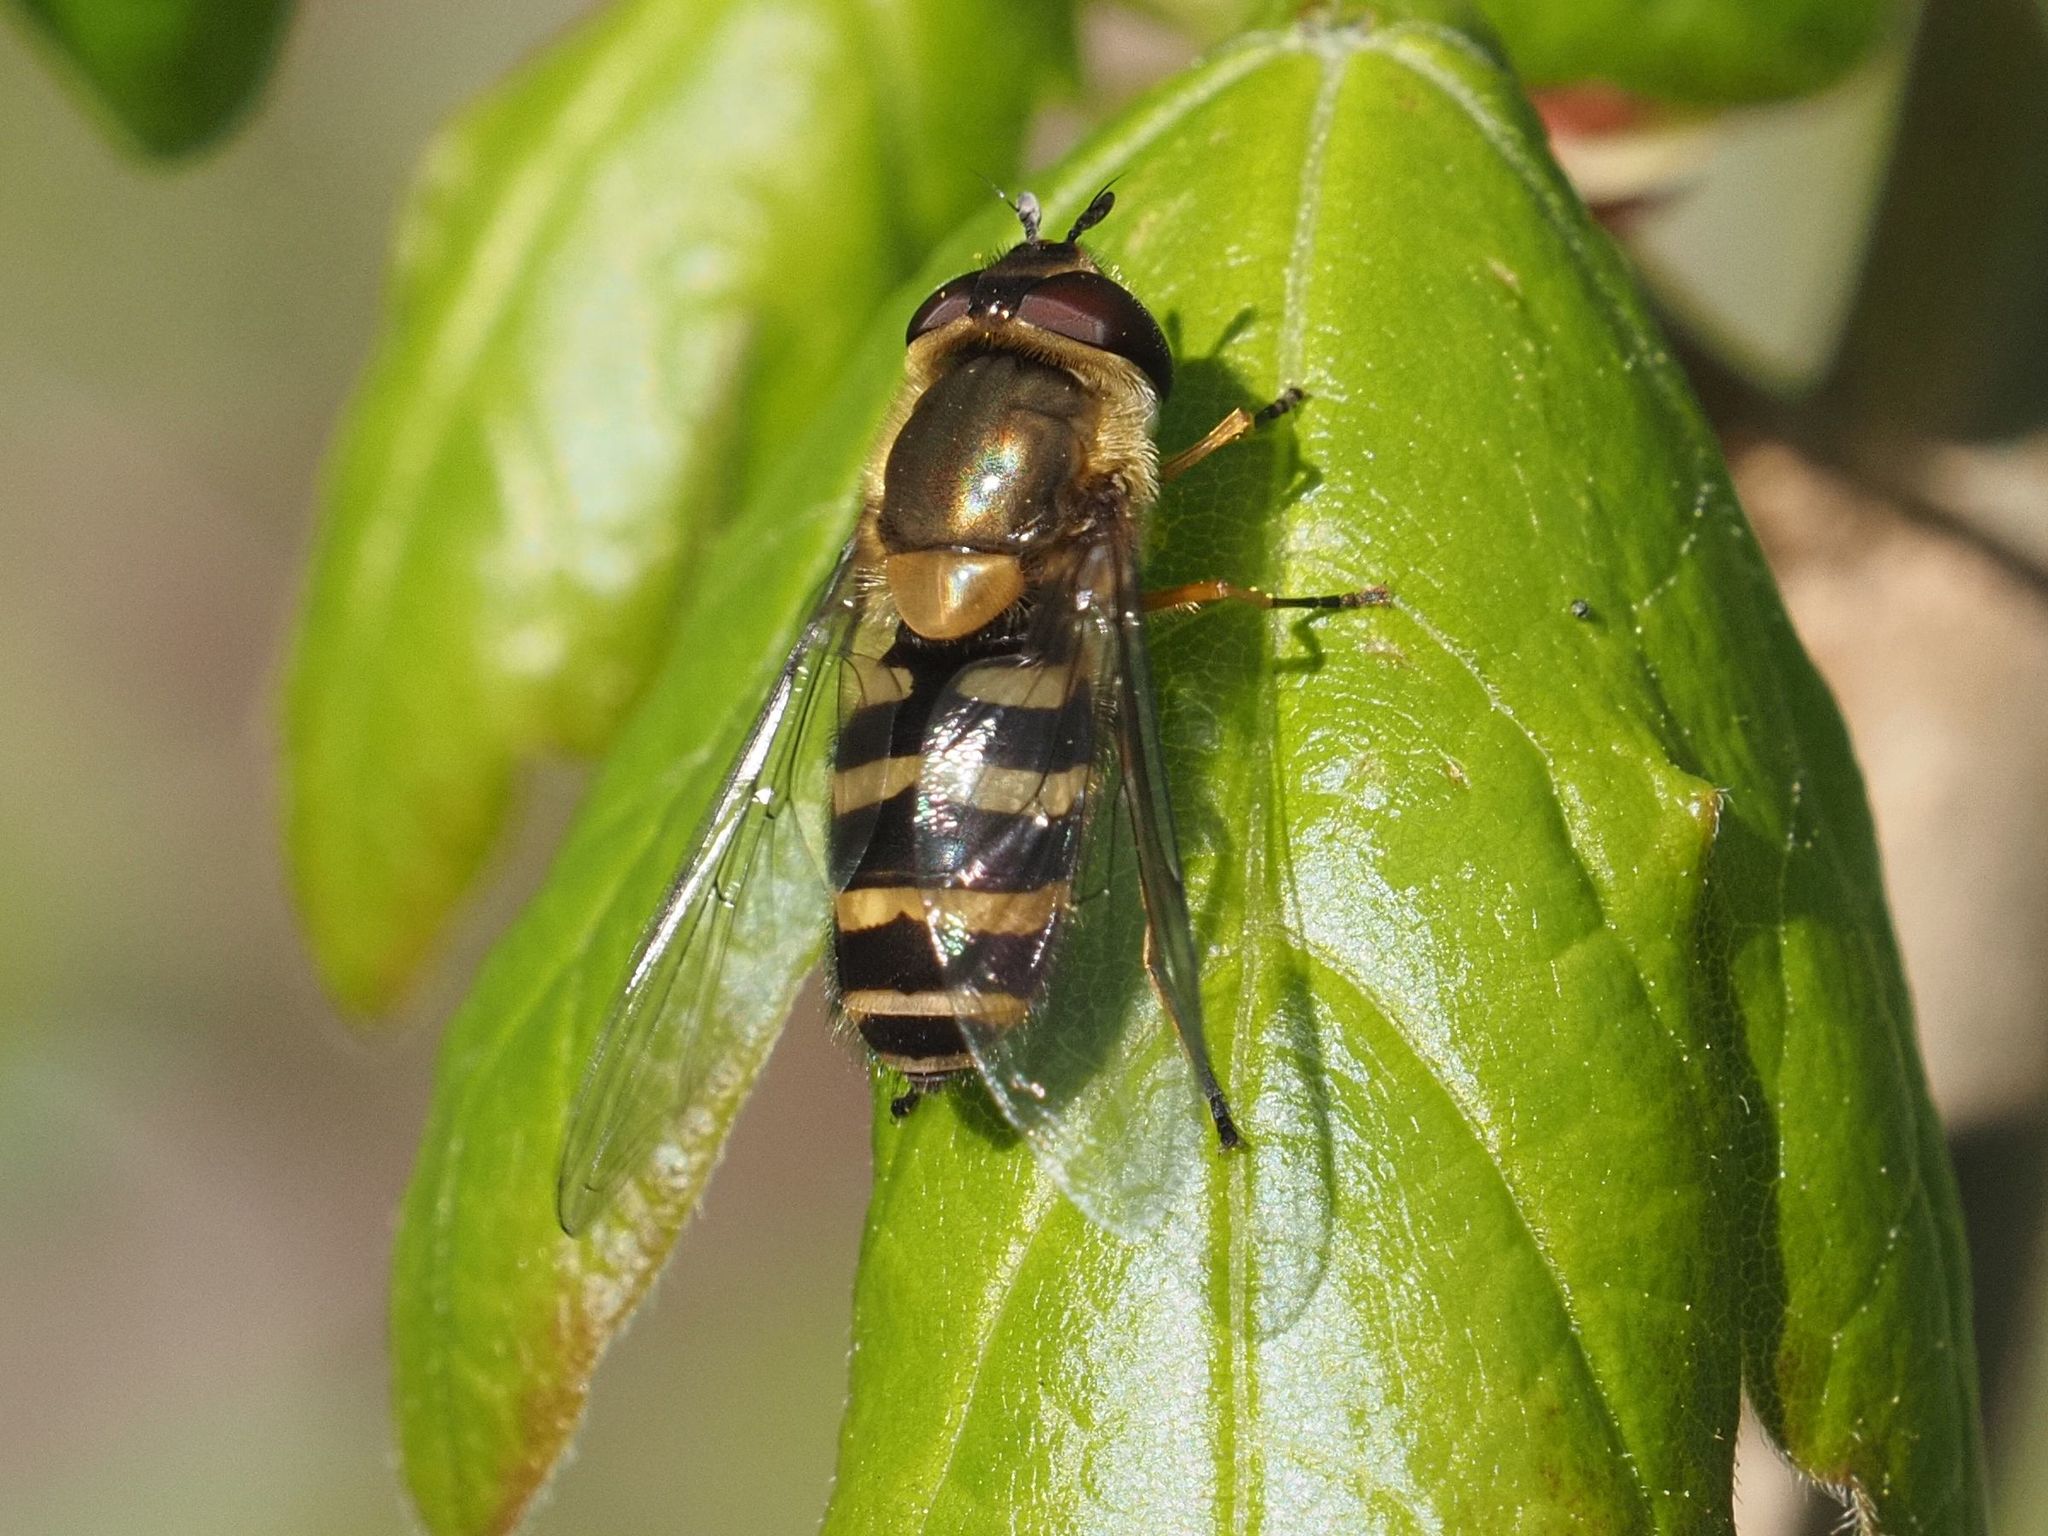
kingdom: Animalia
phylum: Arthropoda
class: Insecta
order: Diptera
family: Syrphidae
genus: Syrphus
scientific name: Syrphus torvus
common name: Hairy-eyed flower fly
